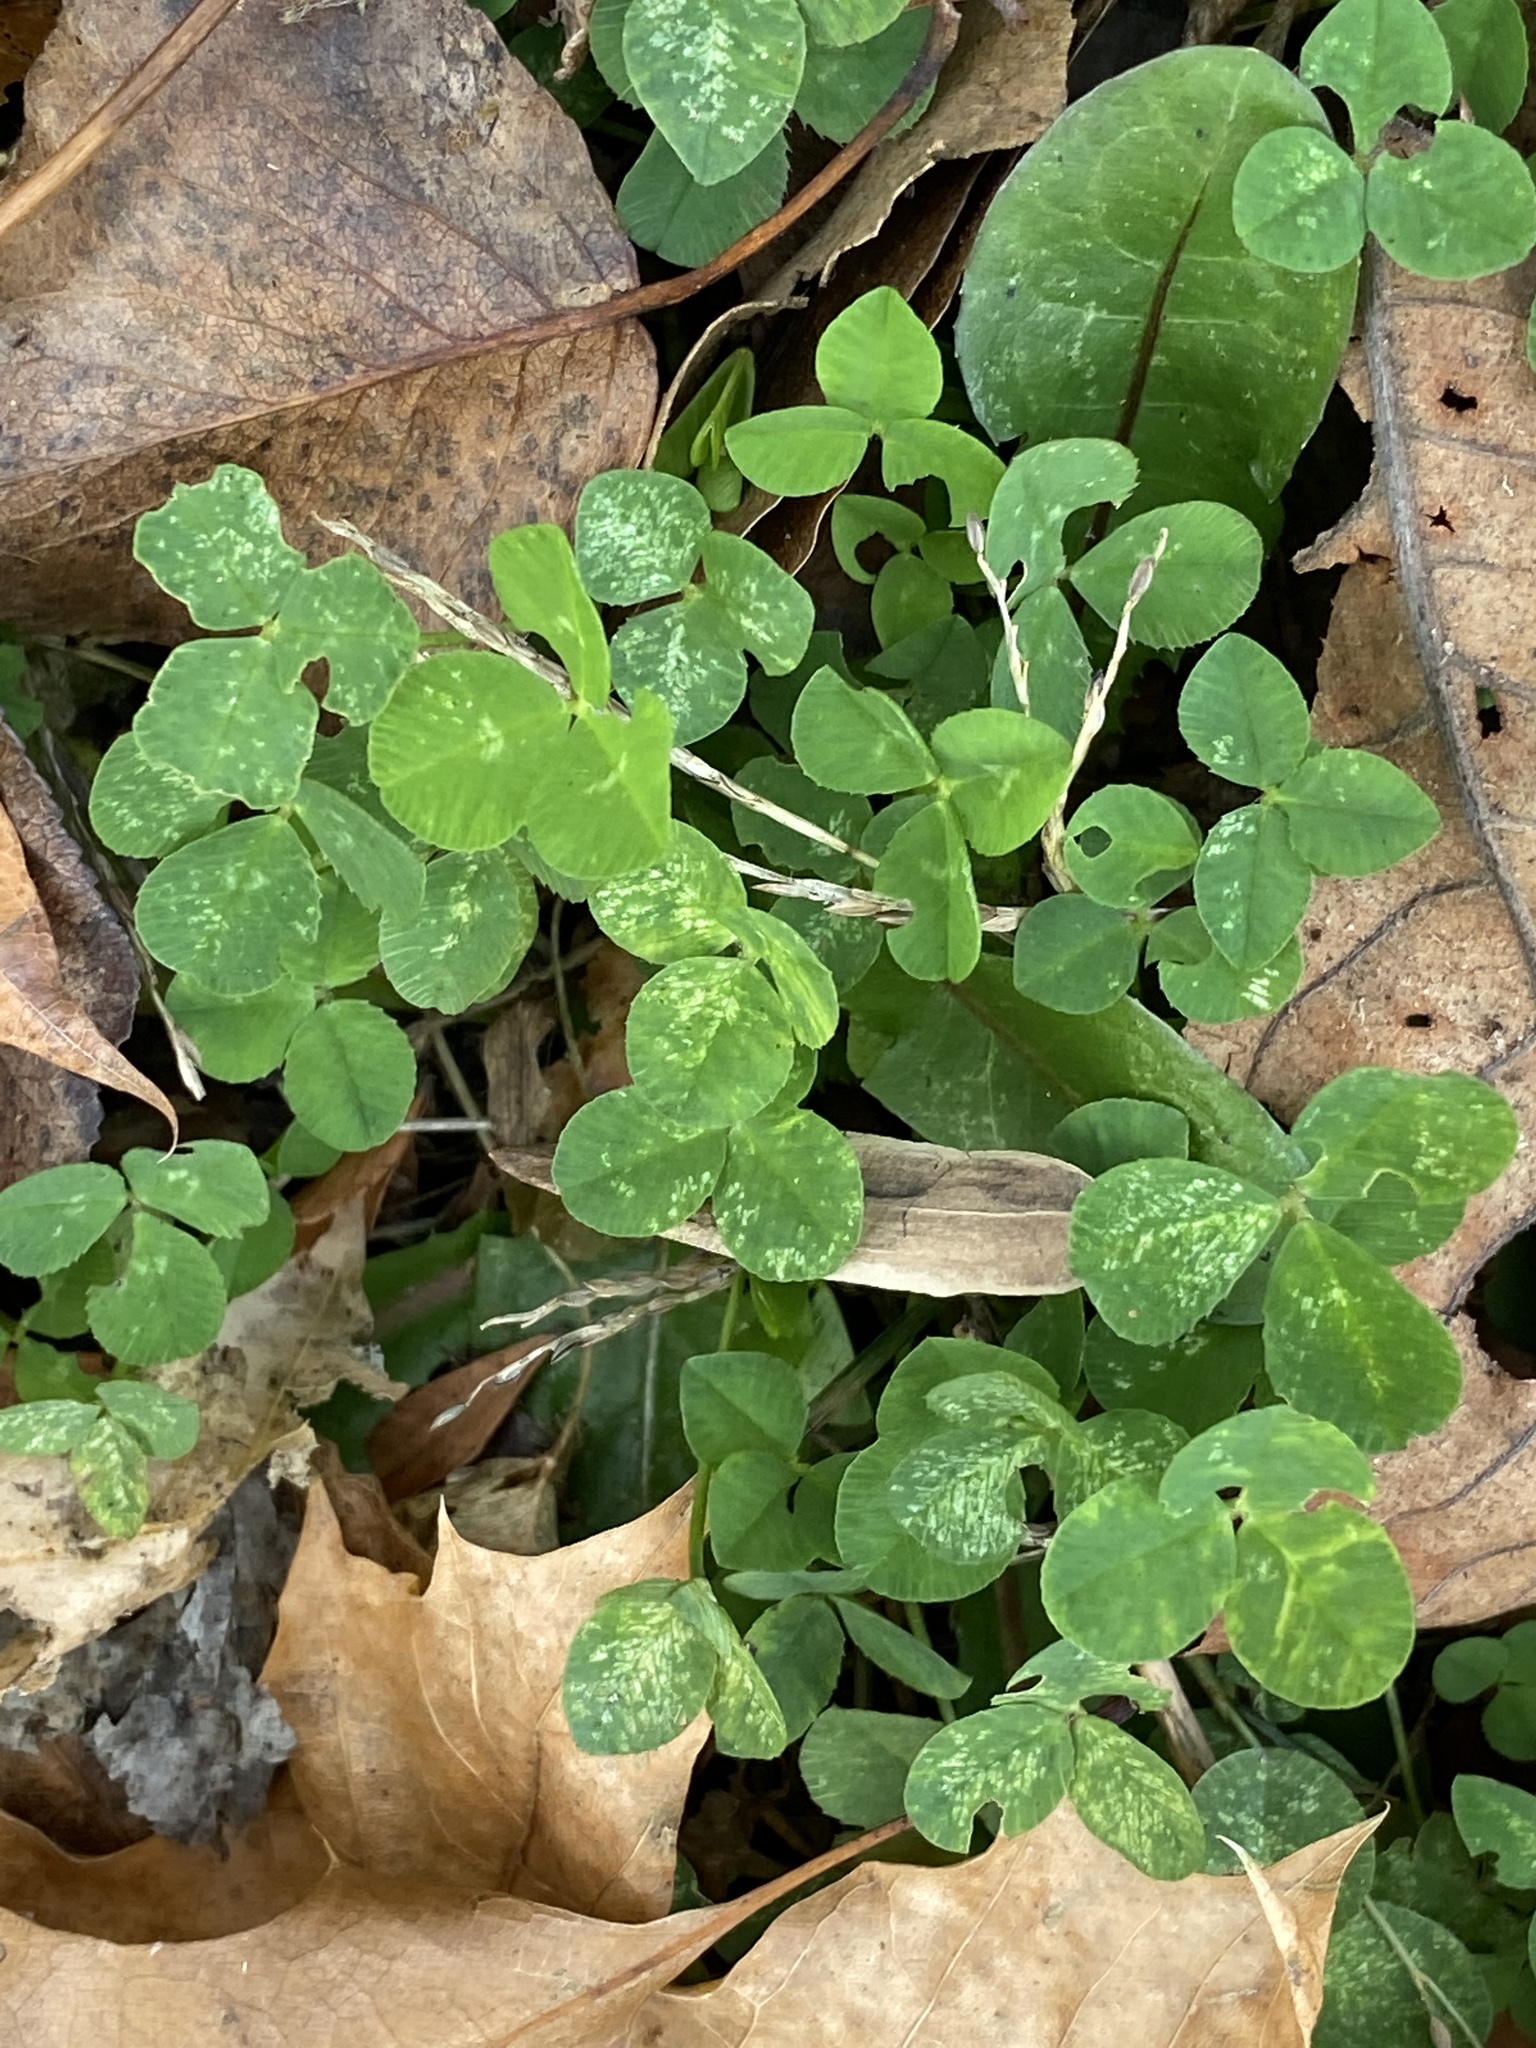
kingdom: Plantae
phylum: Tracheophyta
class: Magnoliopsida
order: Fabales
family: Fabaceae
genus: Trifolium
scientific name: Trifolium repens
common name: White clover
